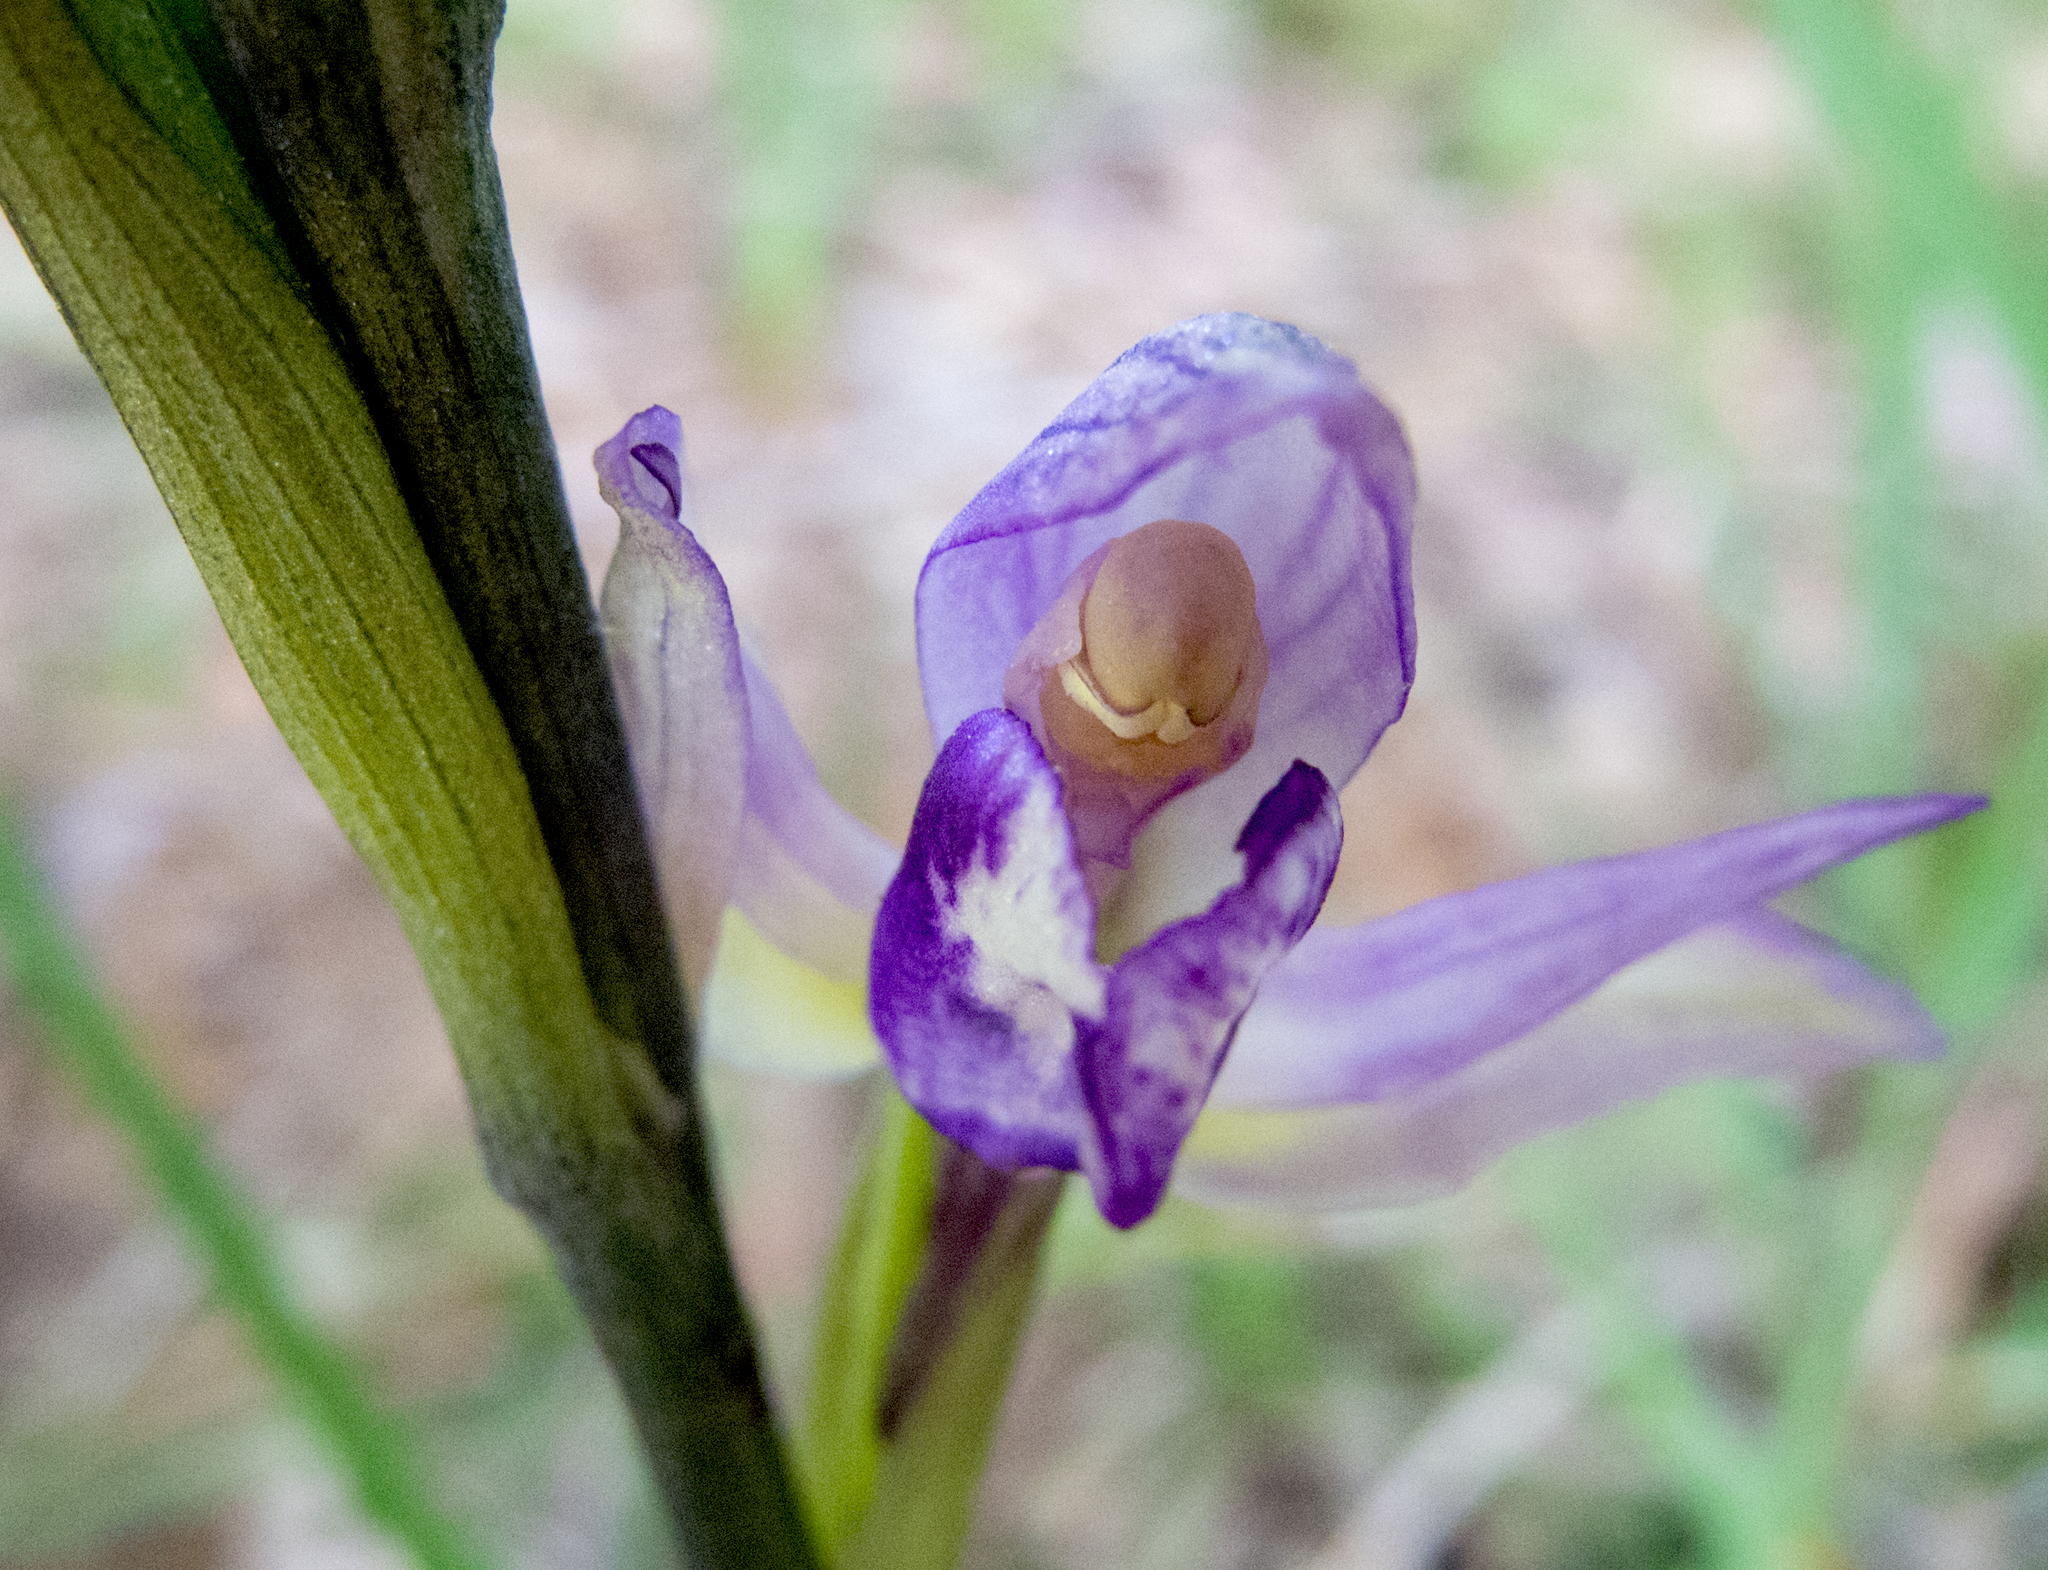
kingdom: Plantae
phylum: Tracheophyta
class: Liliopsida
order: Asparagales
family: Orchidaceae
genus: Limodorum
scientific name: Limodorum abortivum
